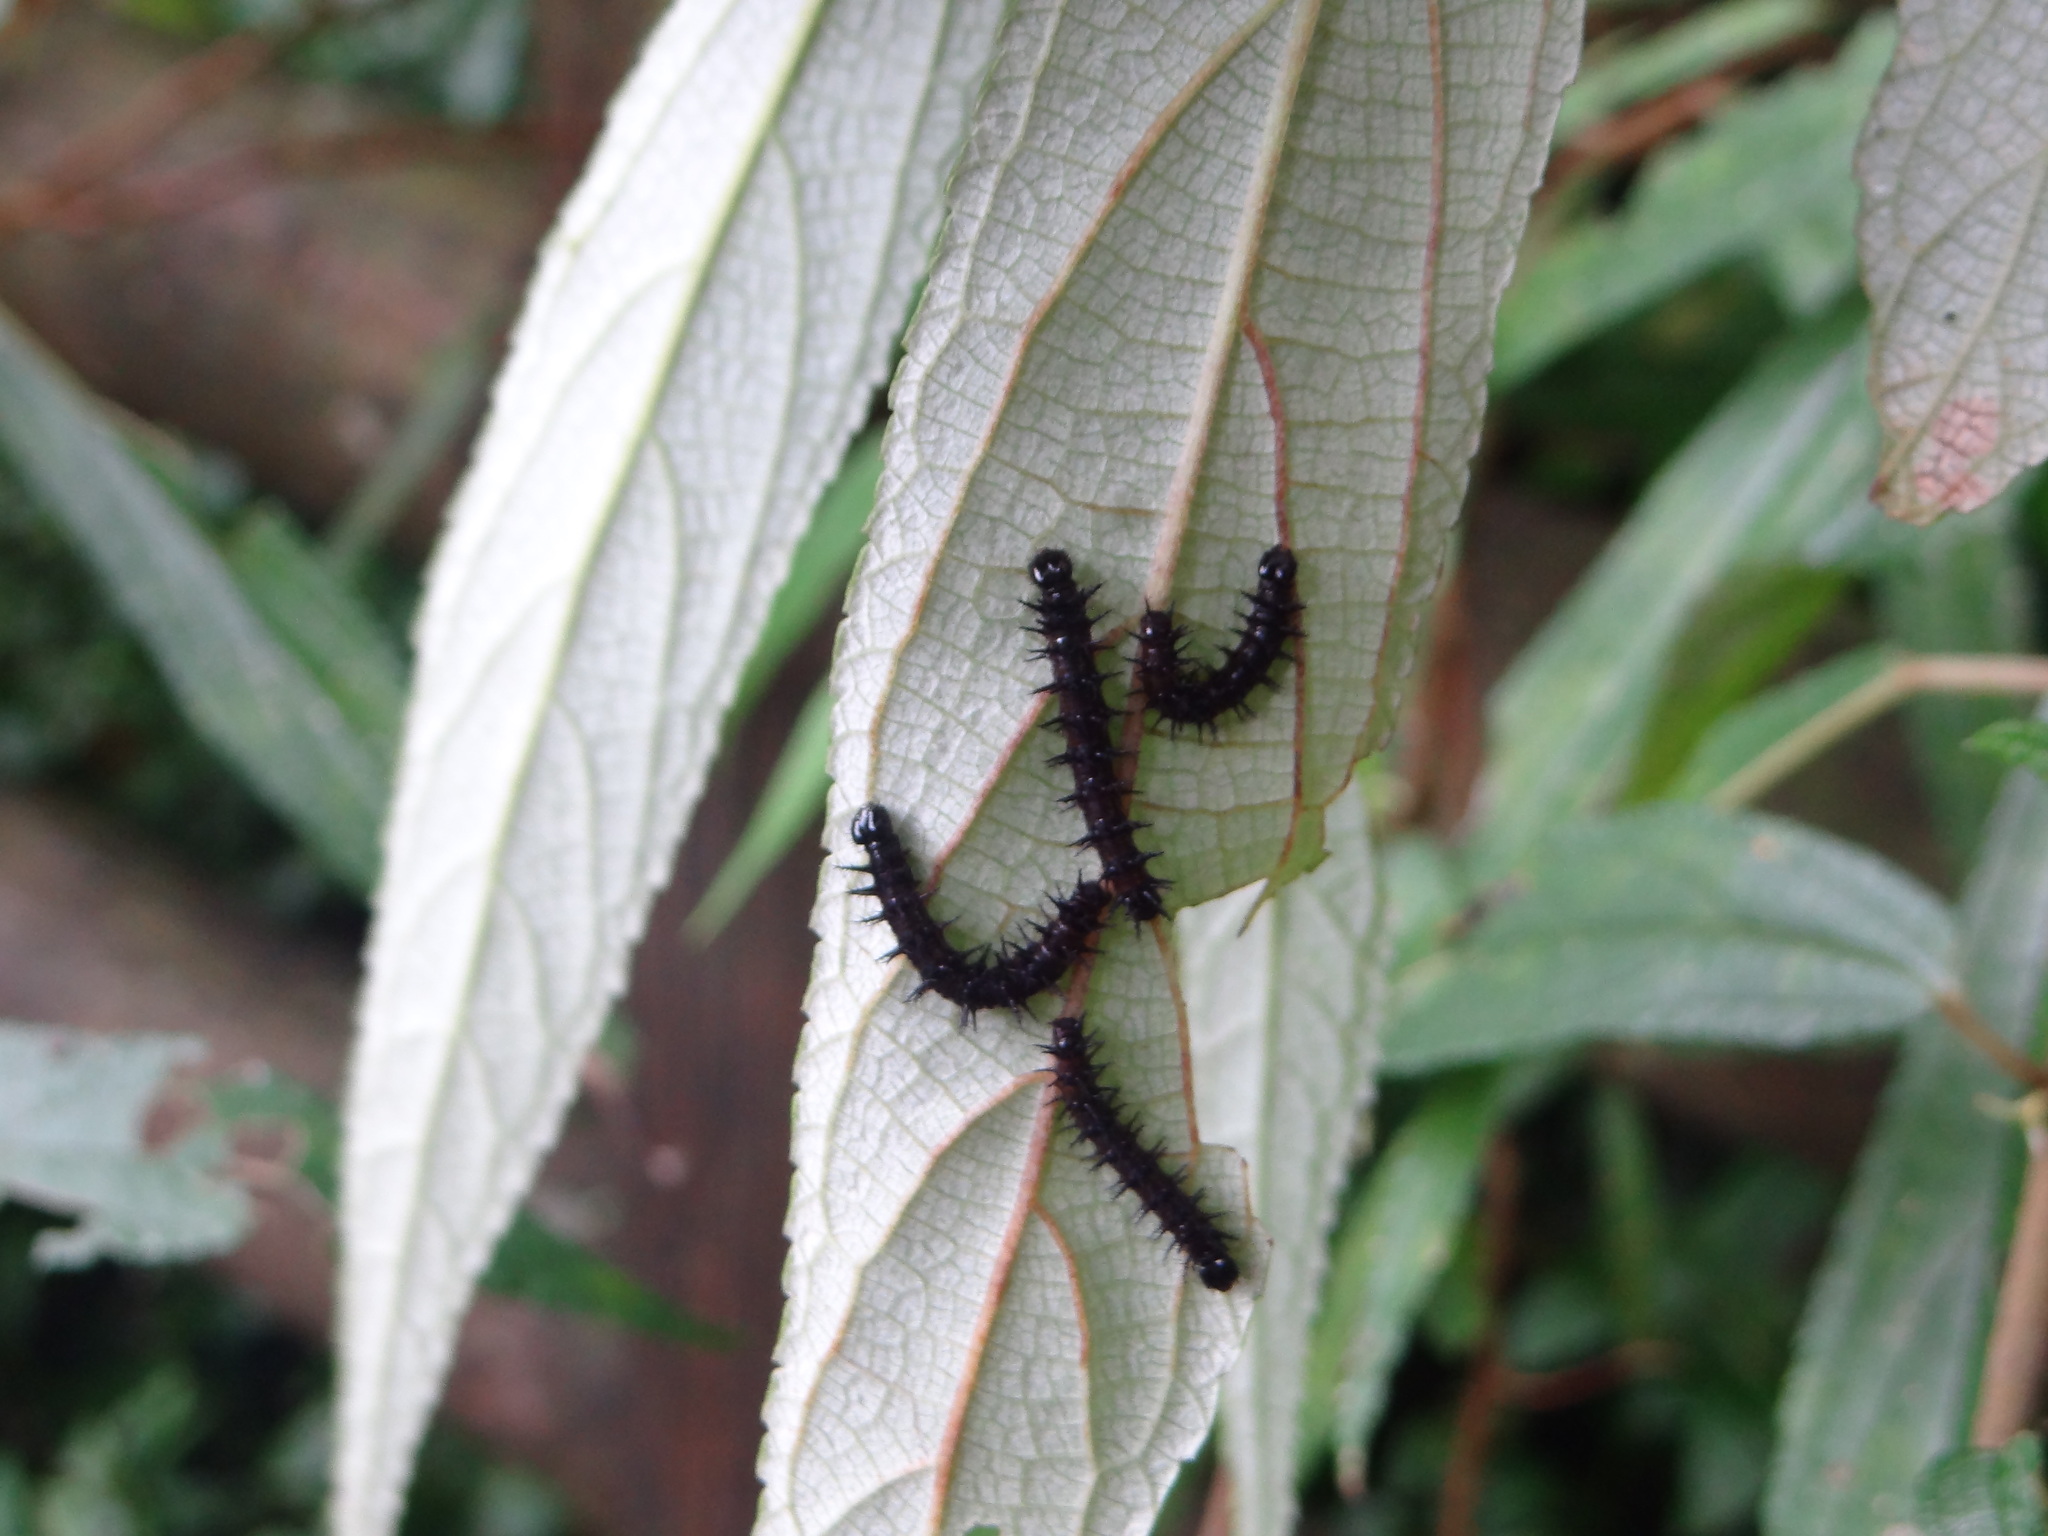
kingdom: Animalia
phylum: Arthropoda
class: Insecta
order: Lepidoptera
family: Nymphalidae
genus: Symbrenthia
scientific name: Symbrenthia hypselis
